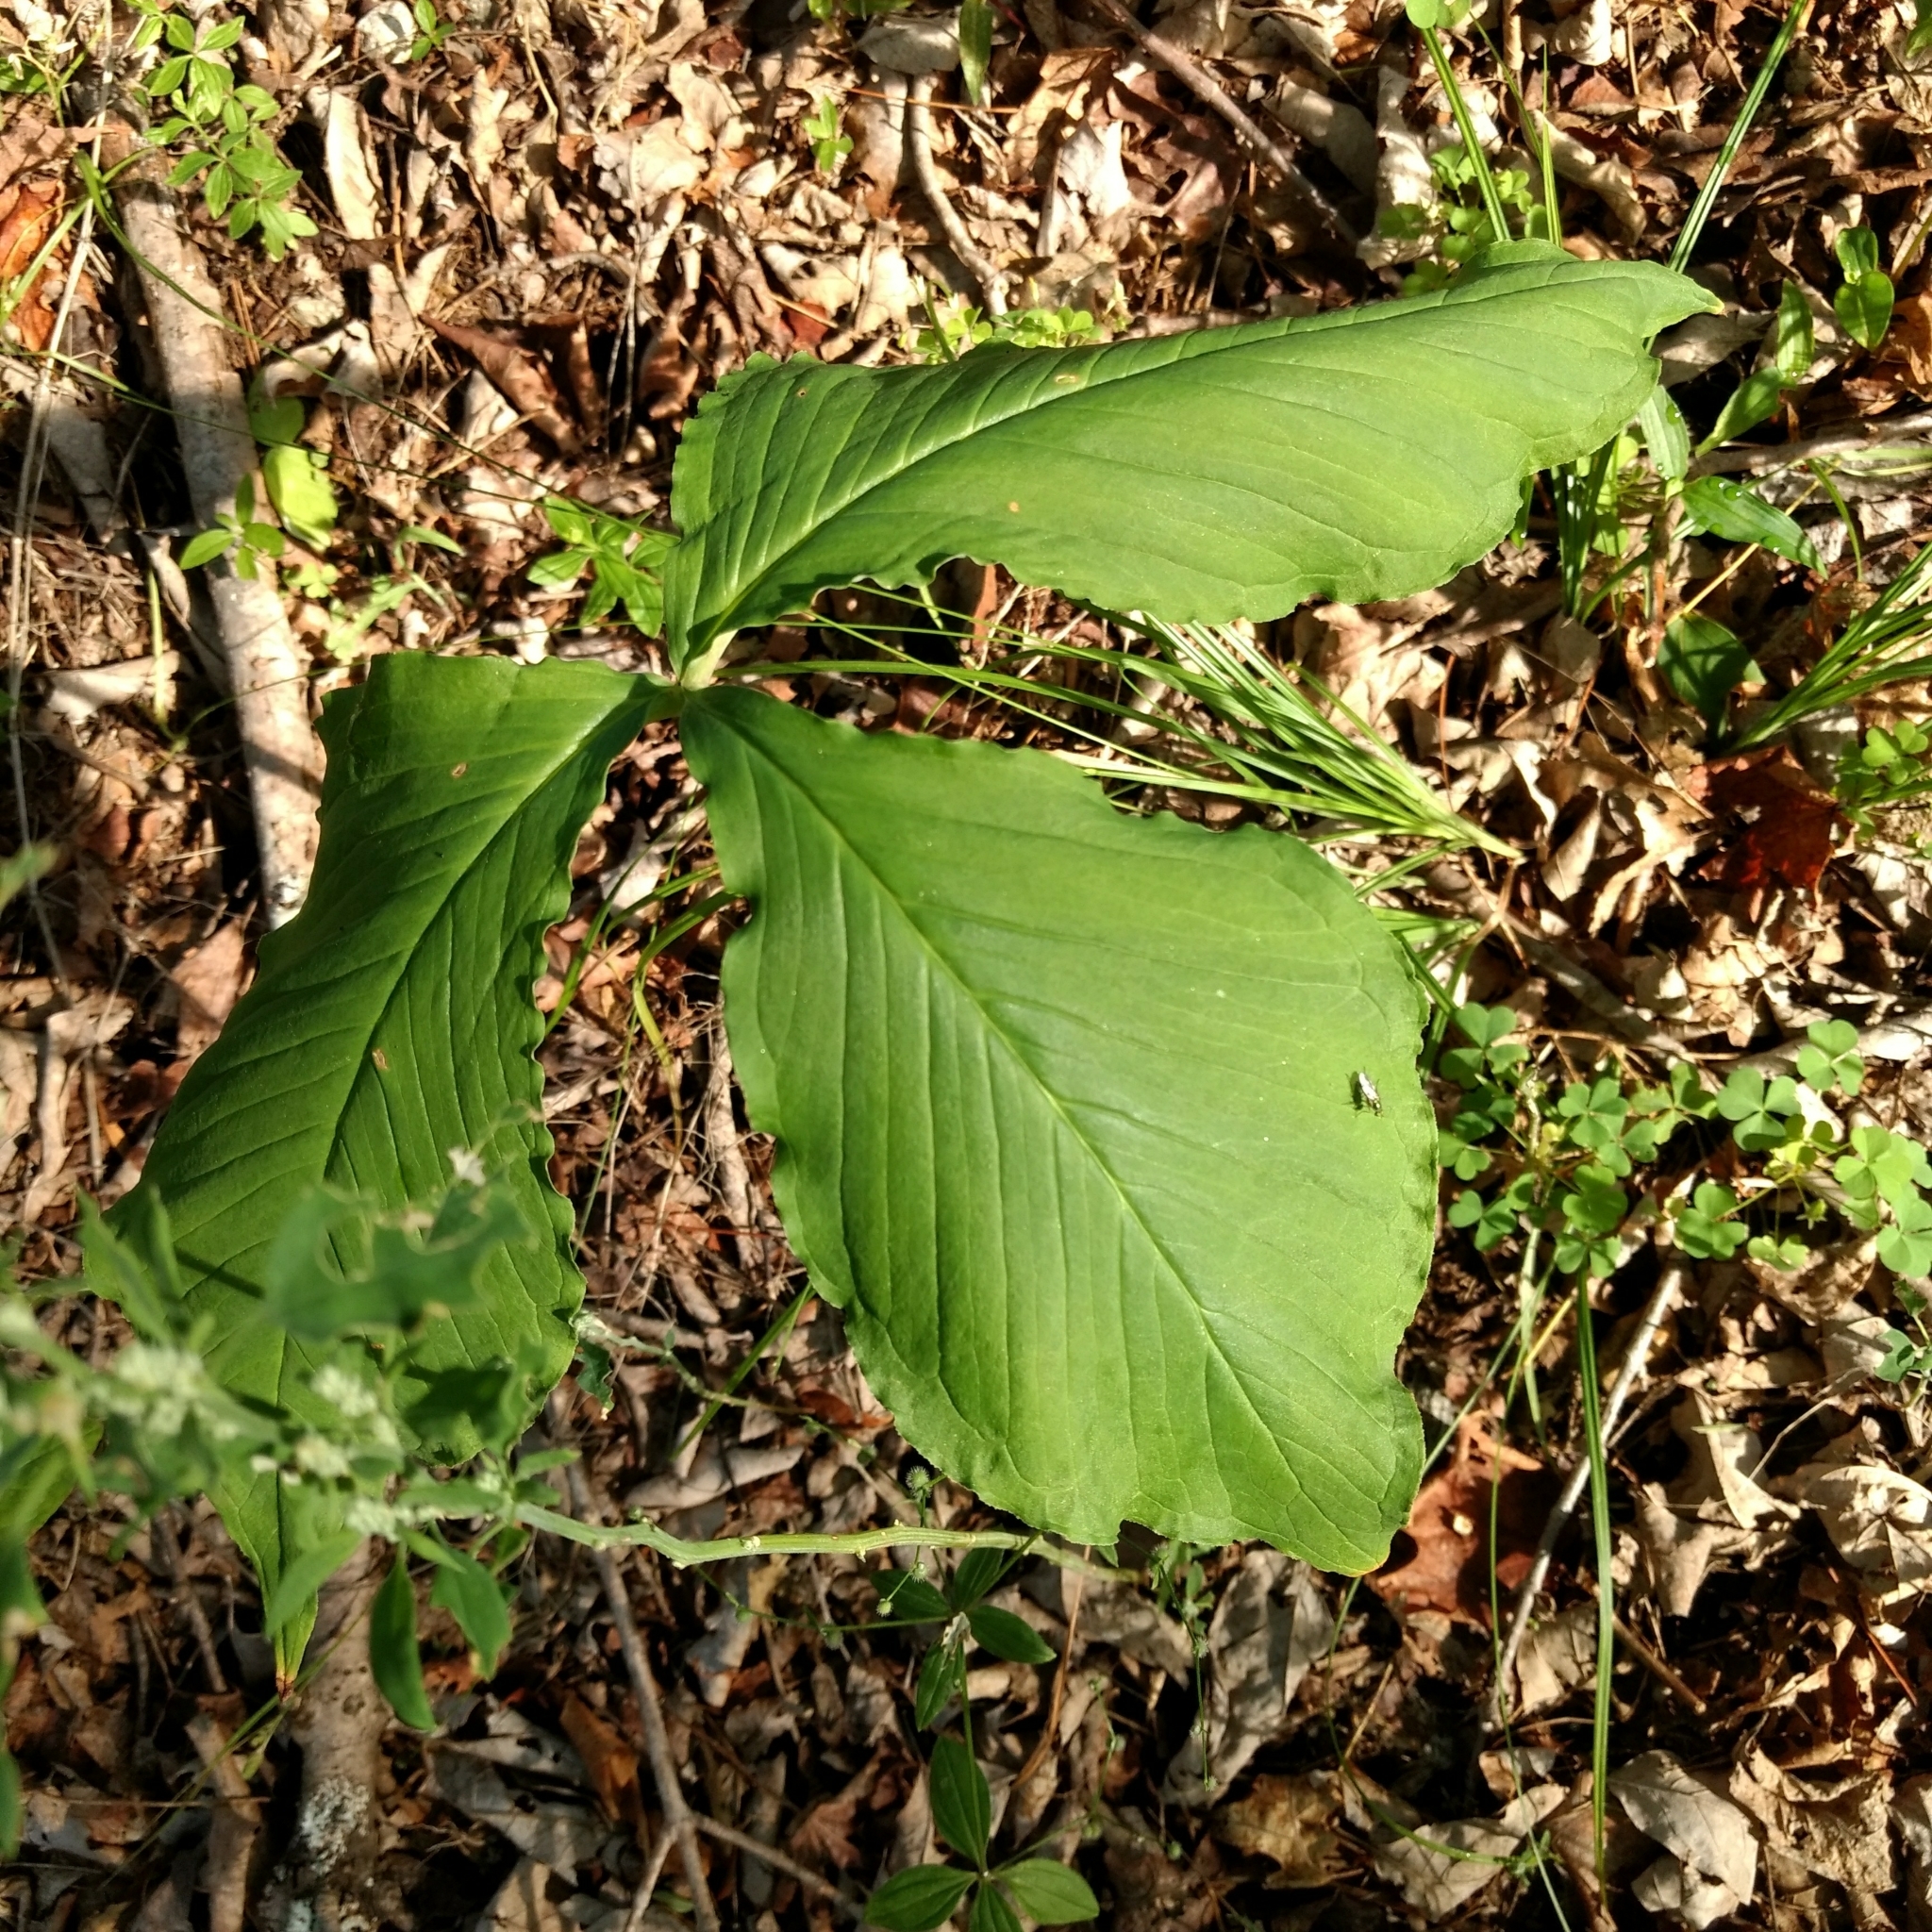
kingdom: Plantae
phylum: Tracheophyta
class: Liliopsida
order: Alismatales
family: Araceae
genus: Arisaema
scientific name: Arisaema triphyllum
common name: Jack-in-the-pulpit
